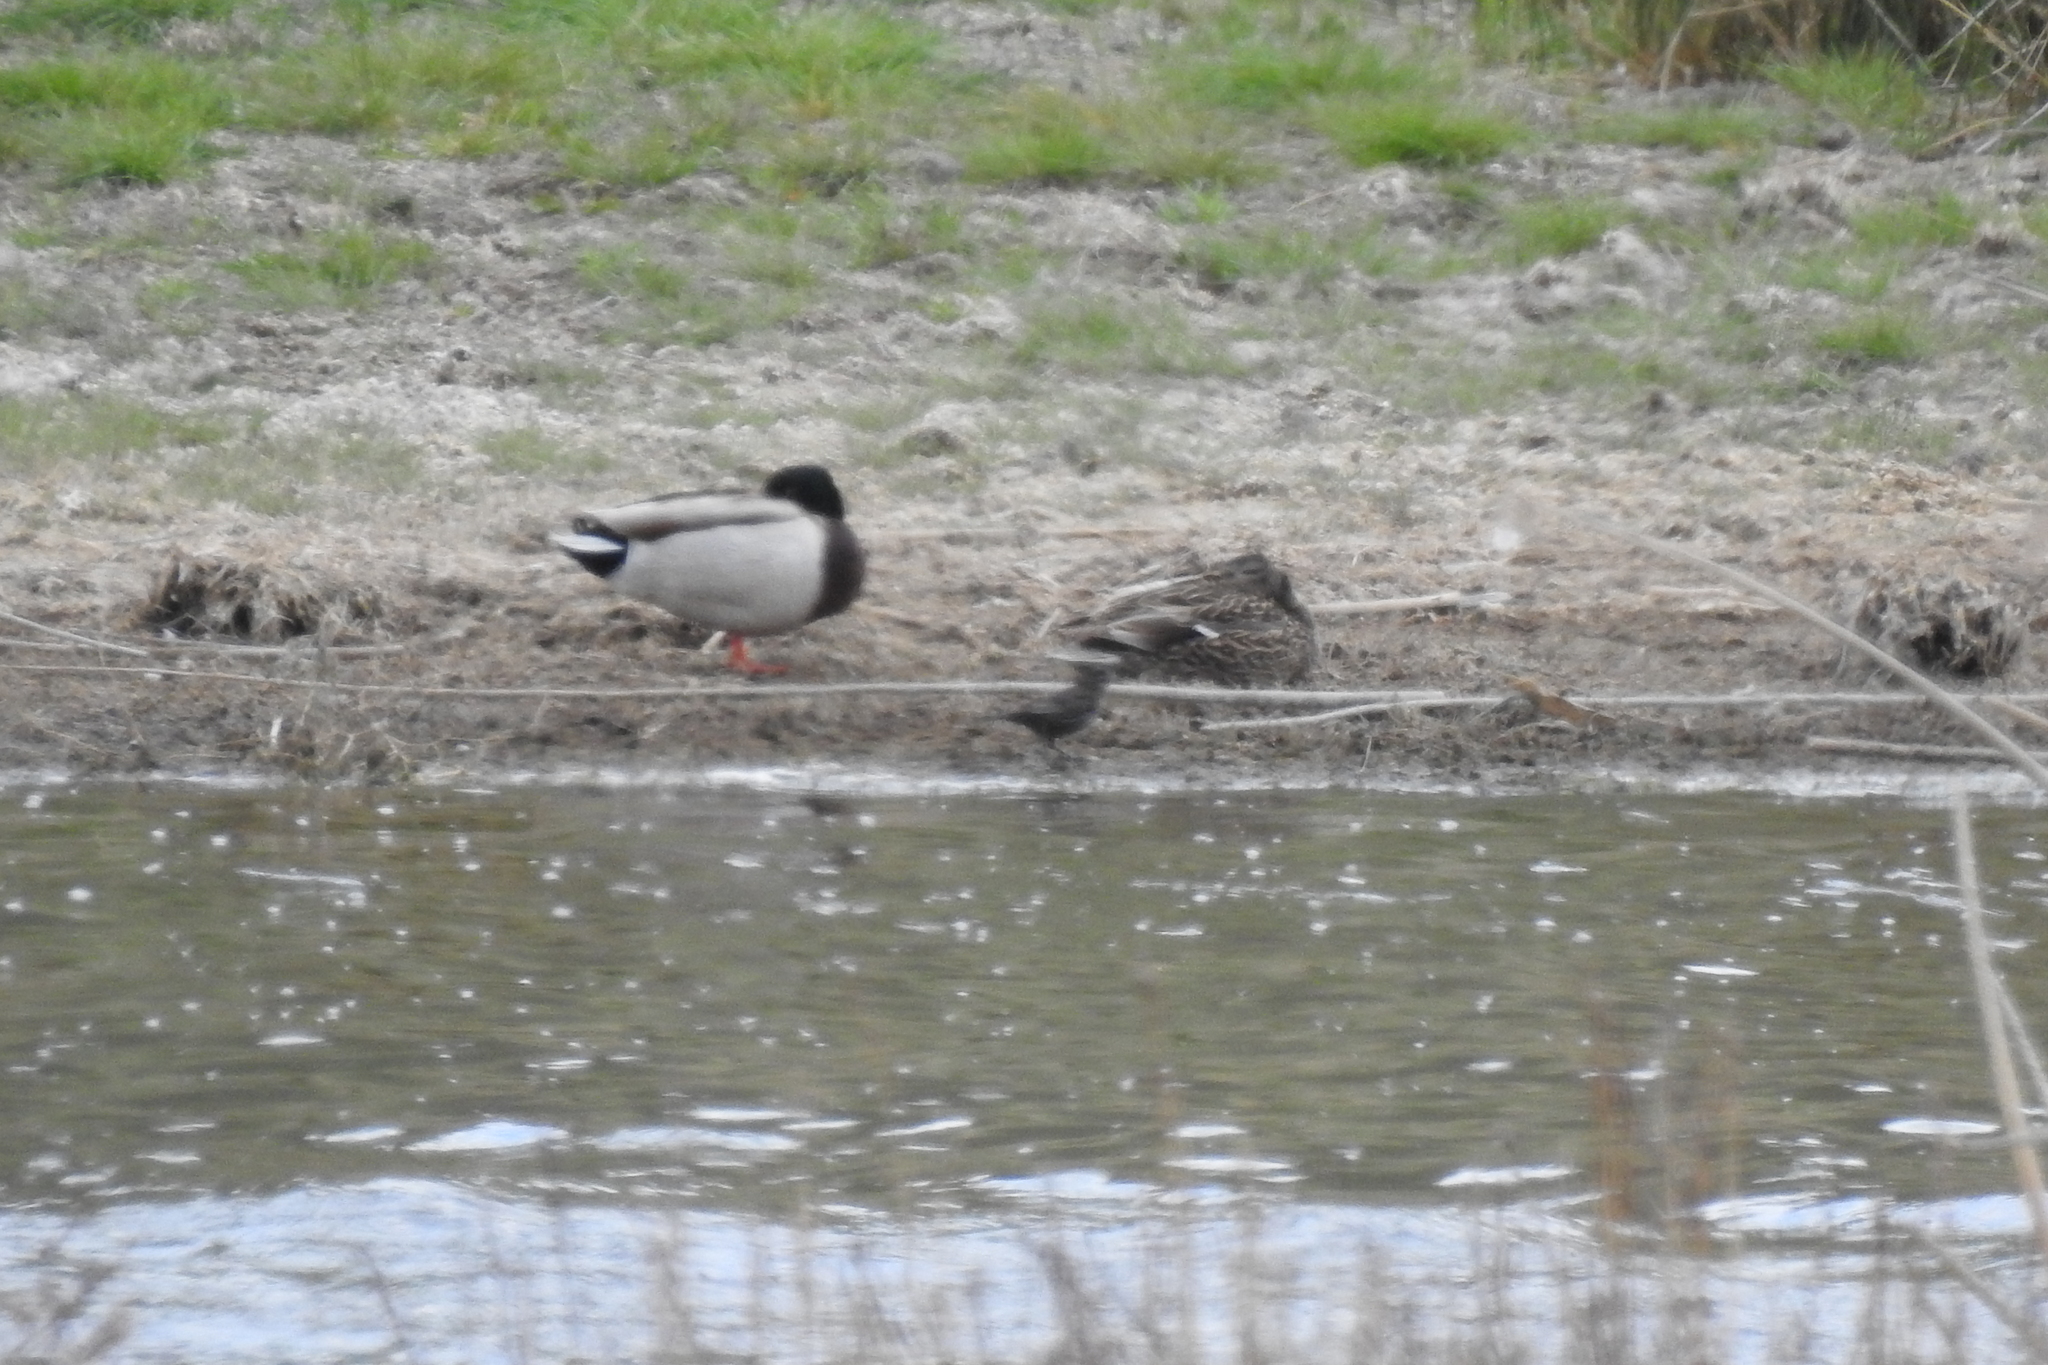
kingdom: Animalia
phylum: Chordata
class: Aves
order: Anseriformes
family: Anatidae
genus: Anas
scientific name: Anas platyrhynchos
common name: Mallard
